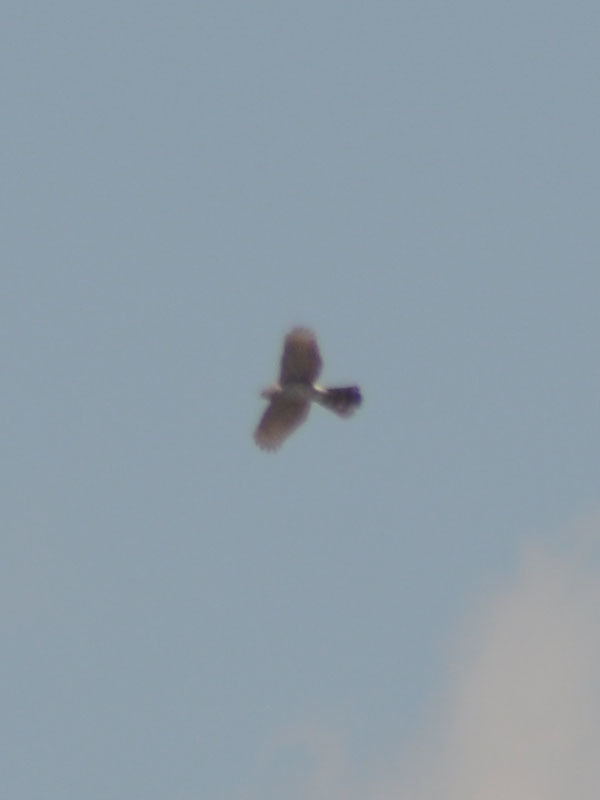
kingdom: Animalia
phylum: Chordata
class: Aves
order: Accipitriformes
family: Accipitridae
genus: Accipiter
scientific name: Accipiter cooperii
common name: Cooper's hawk
